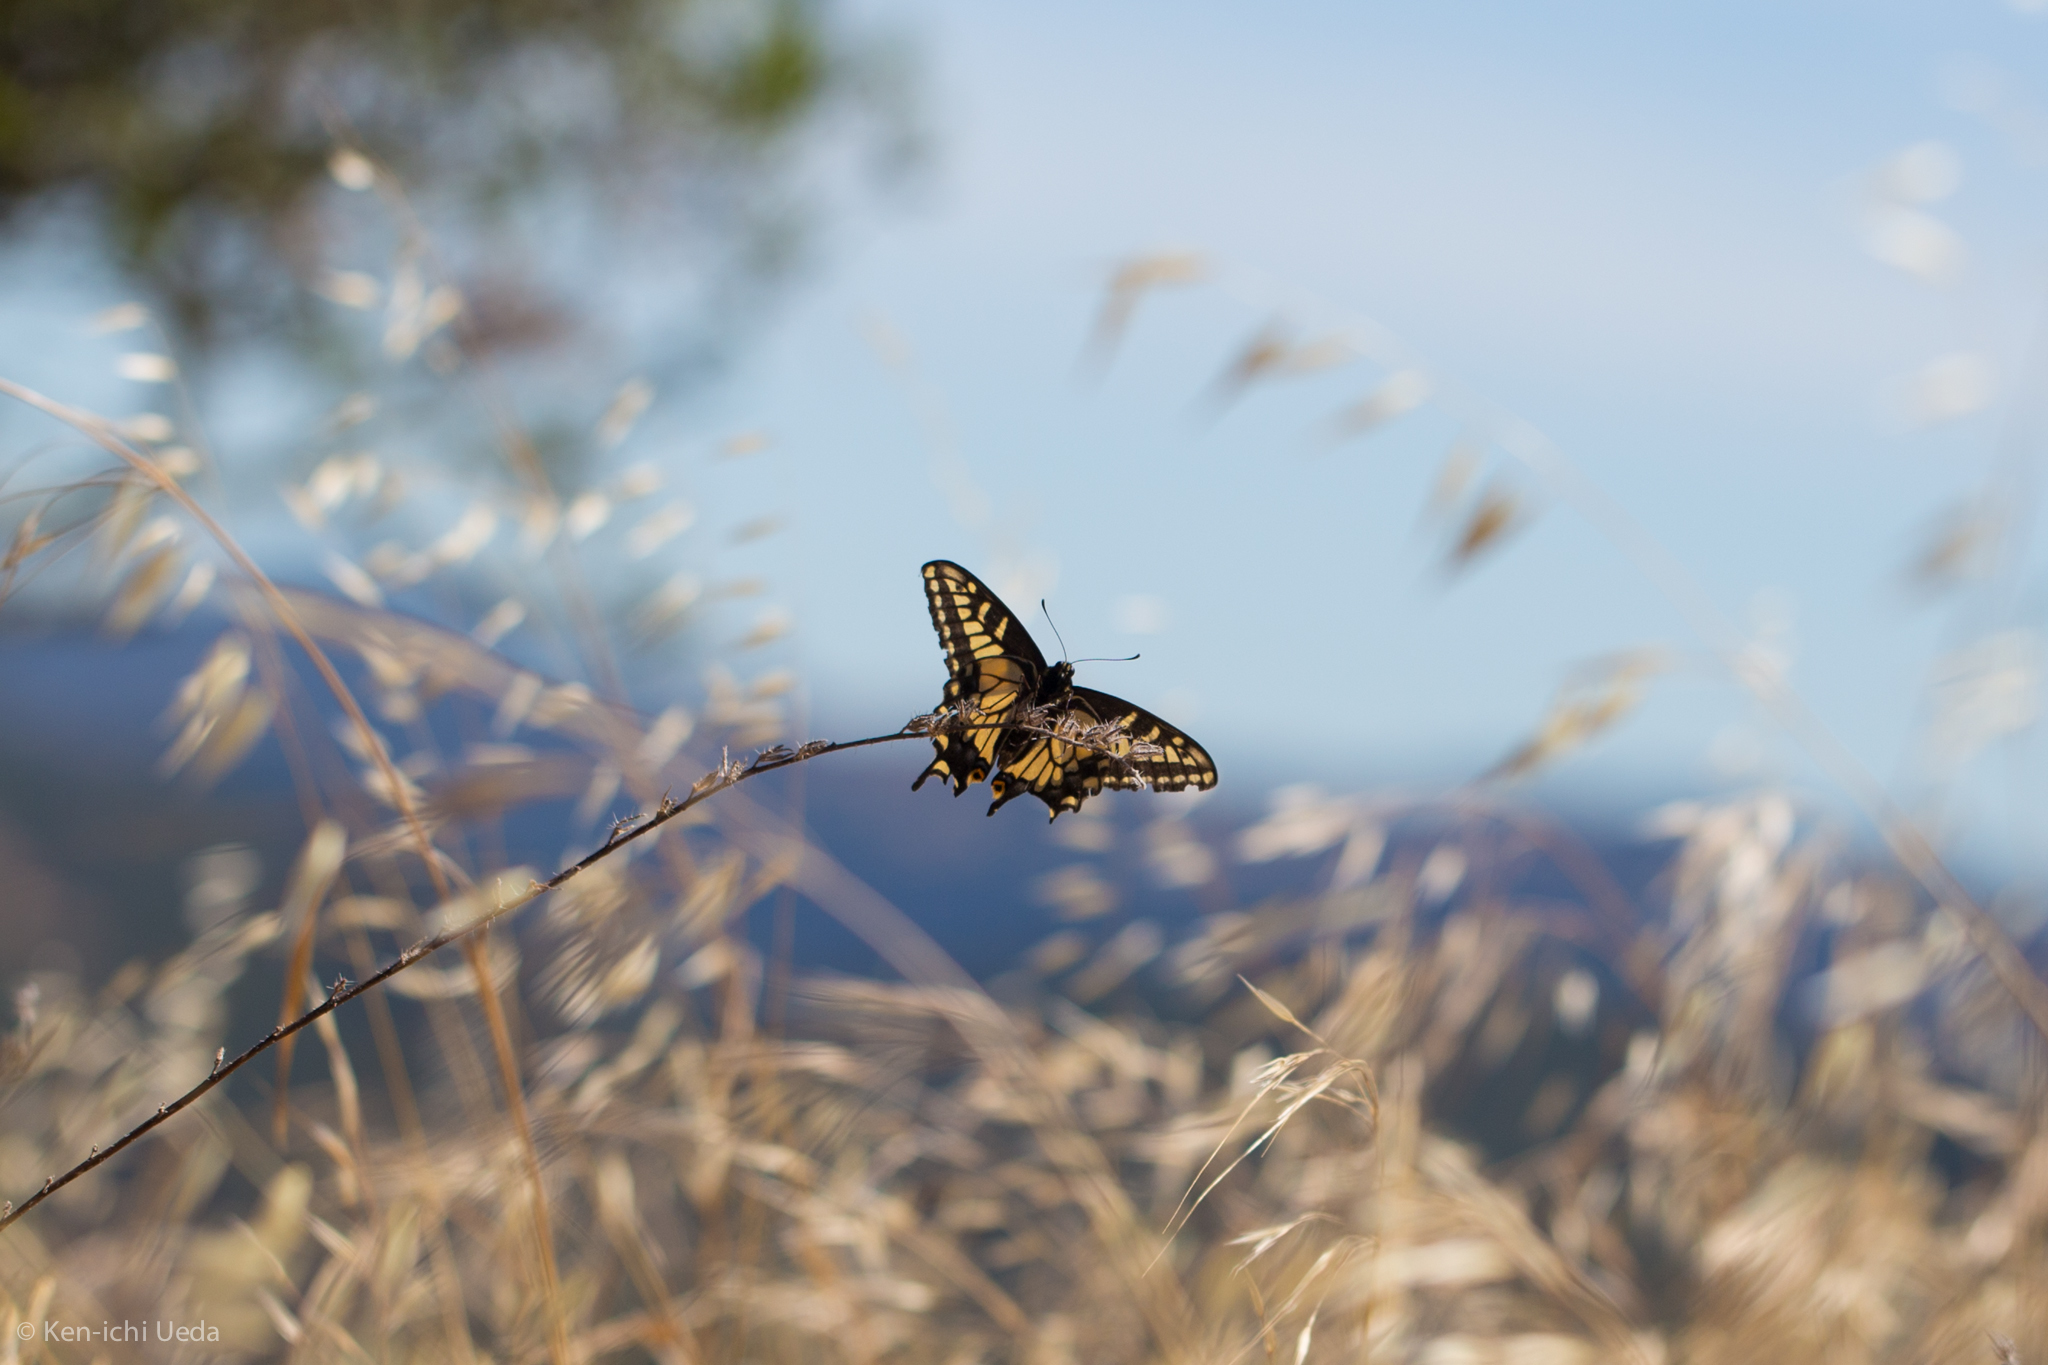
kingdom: Animalia
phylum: Arthropoda
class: Insecta
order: Lepidoptera
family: Papilionidae
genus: Papilio
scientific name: Papilio zelicaon
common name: Anise swallowtail
